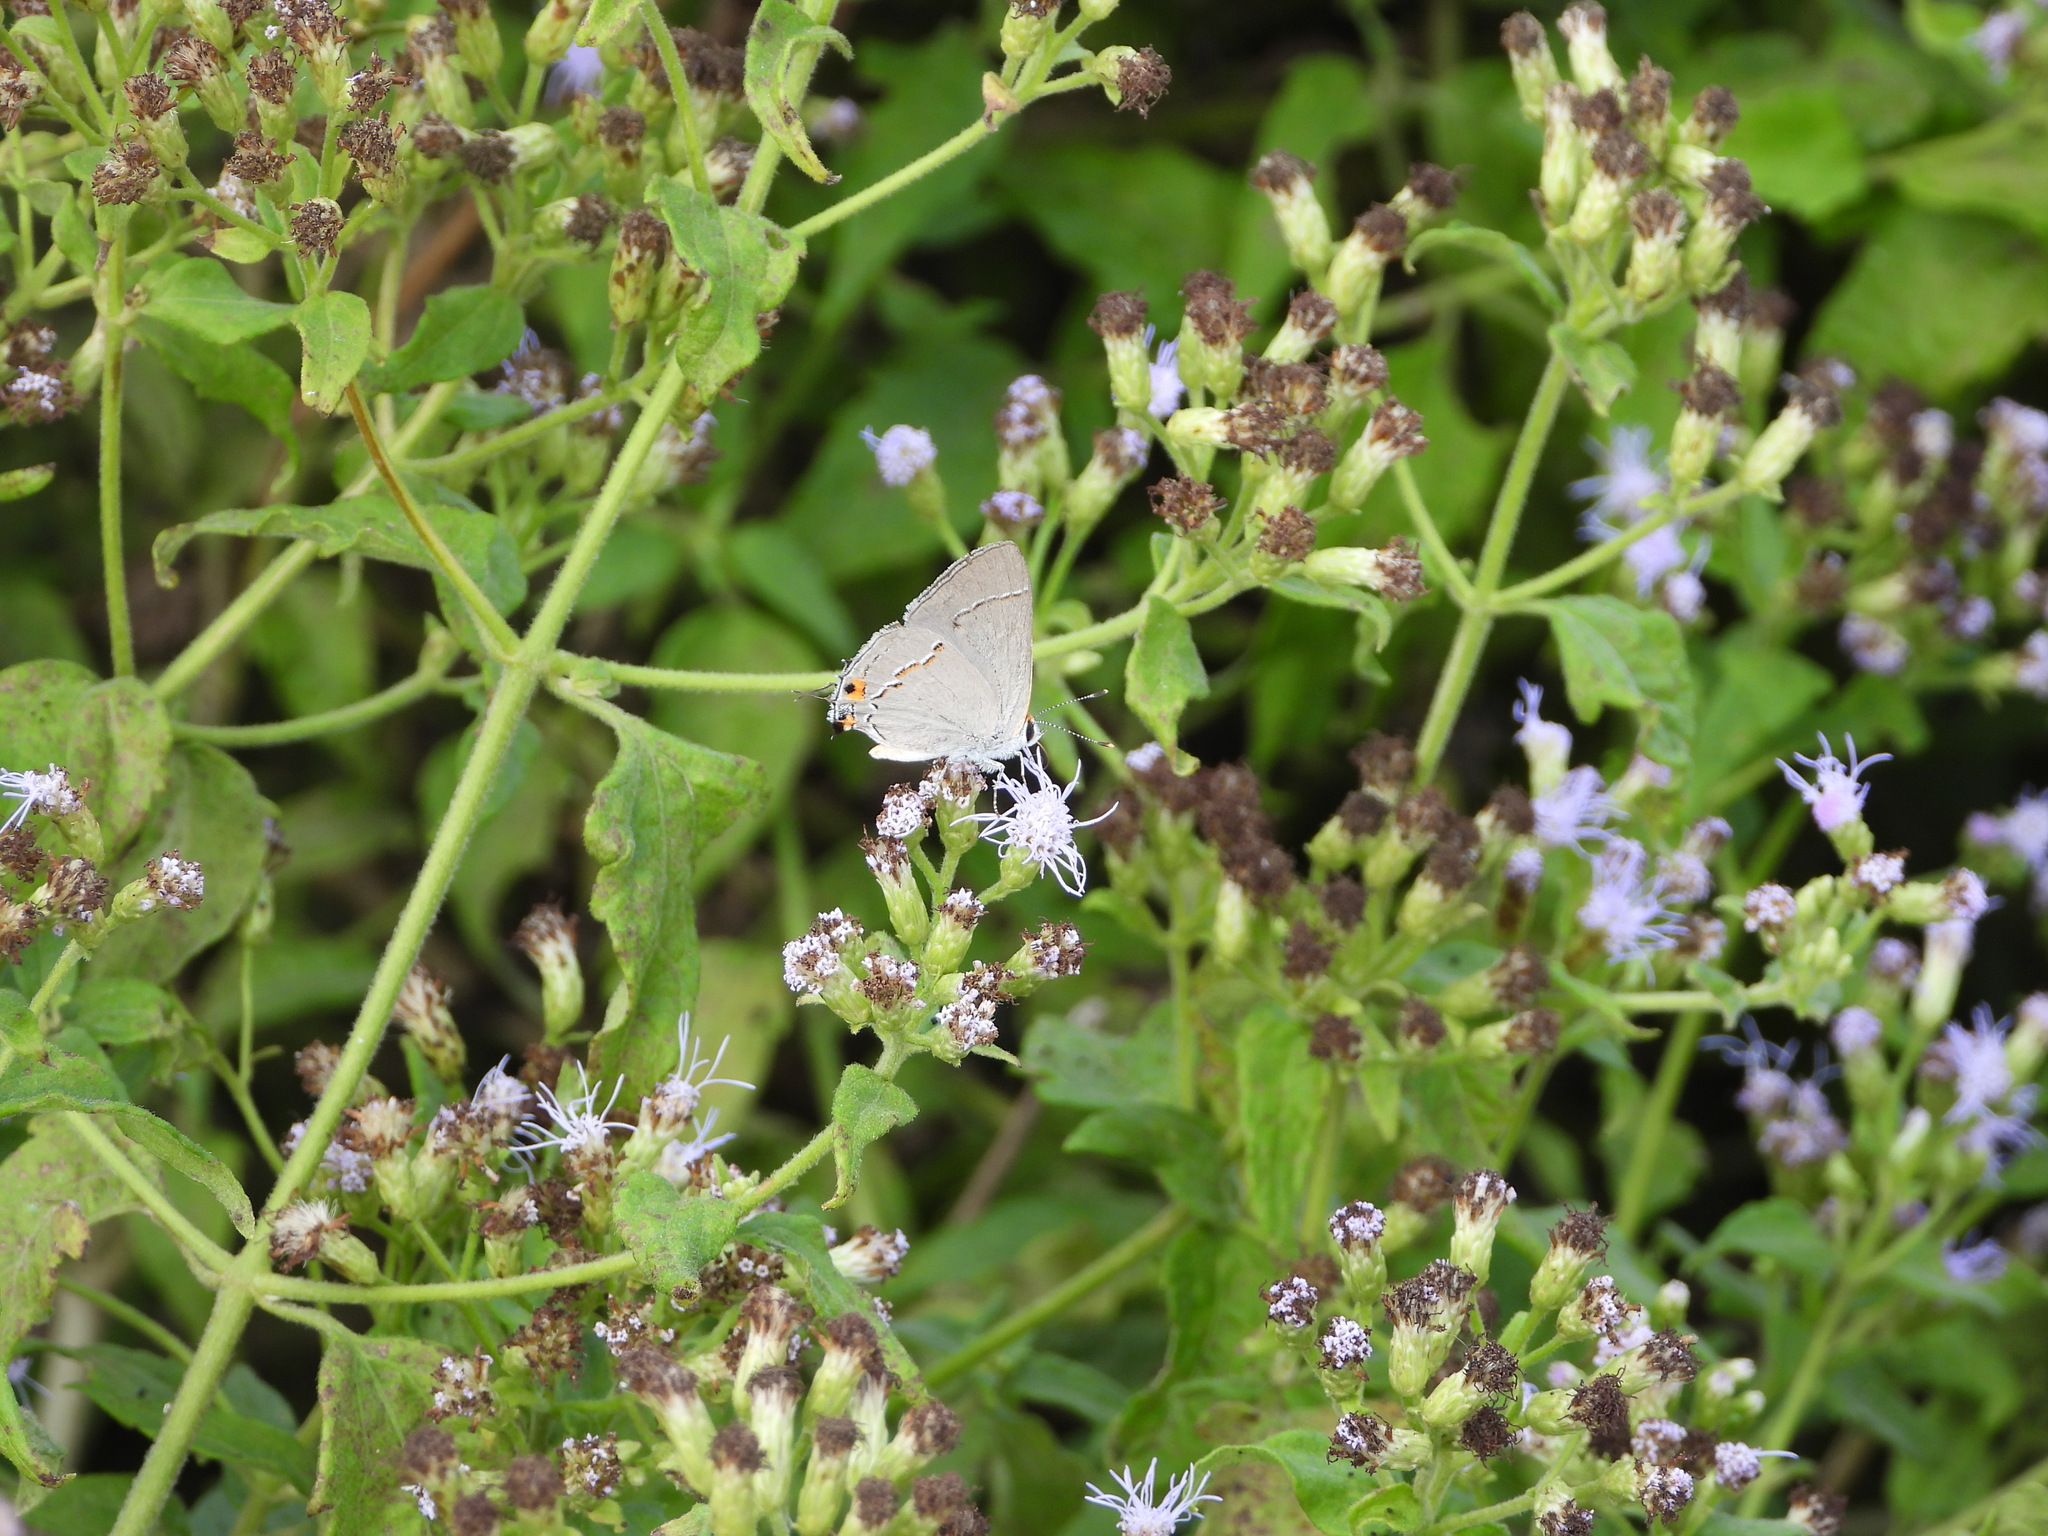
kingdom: Animalia
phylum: Arthropoda
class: Insecta
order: Lepidoptera
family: Lycaenidae
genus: Strymon
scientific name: Strymon melinus
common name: Gray hairstreak
